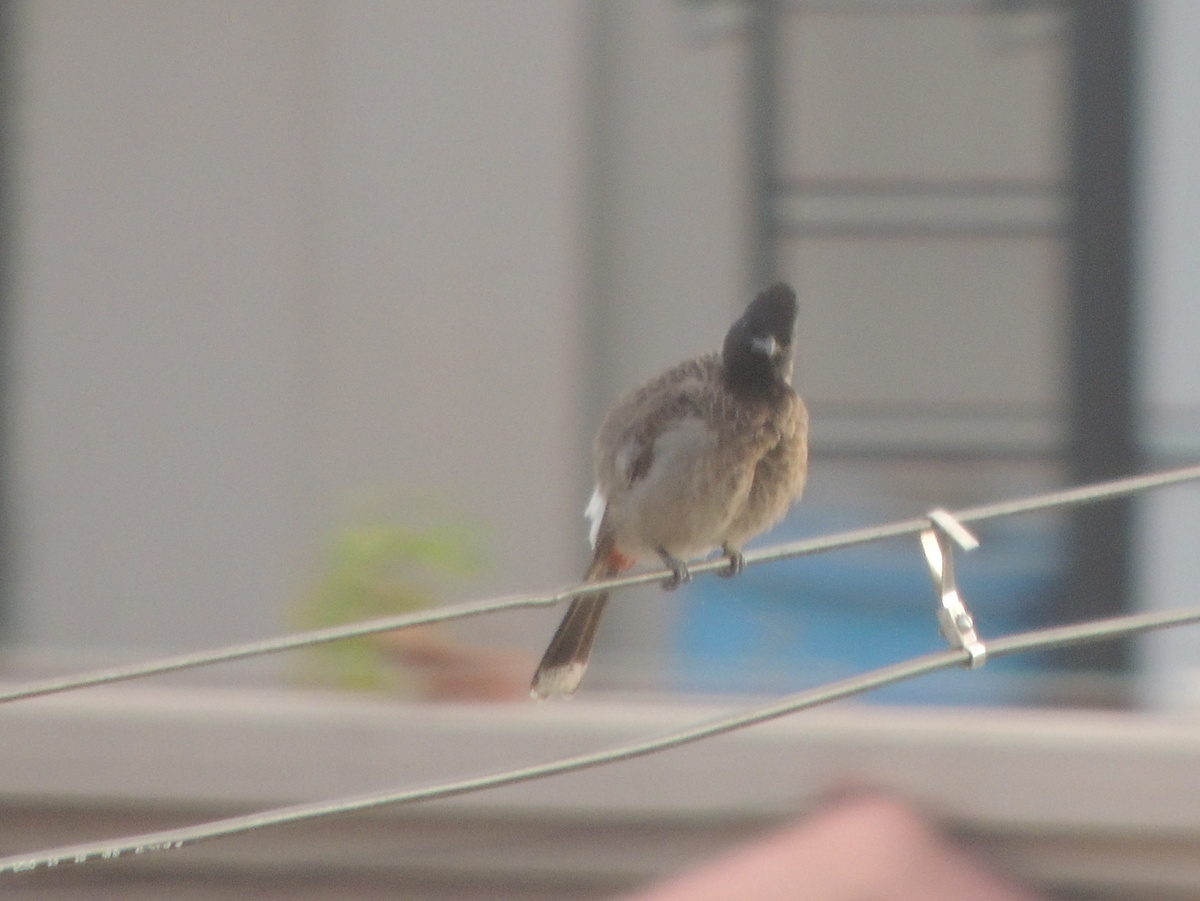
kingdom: Animalia
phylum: Chordata
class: Aves
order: Passeriformes
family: Pycnonotidae
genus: Pycnonotus
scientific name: Pycnonotus cafer
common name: Red-vented bulbul
